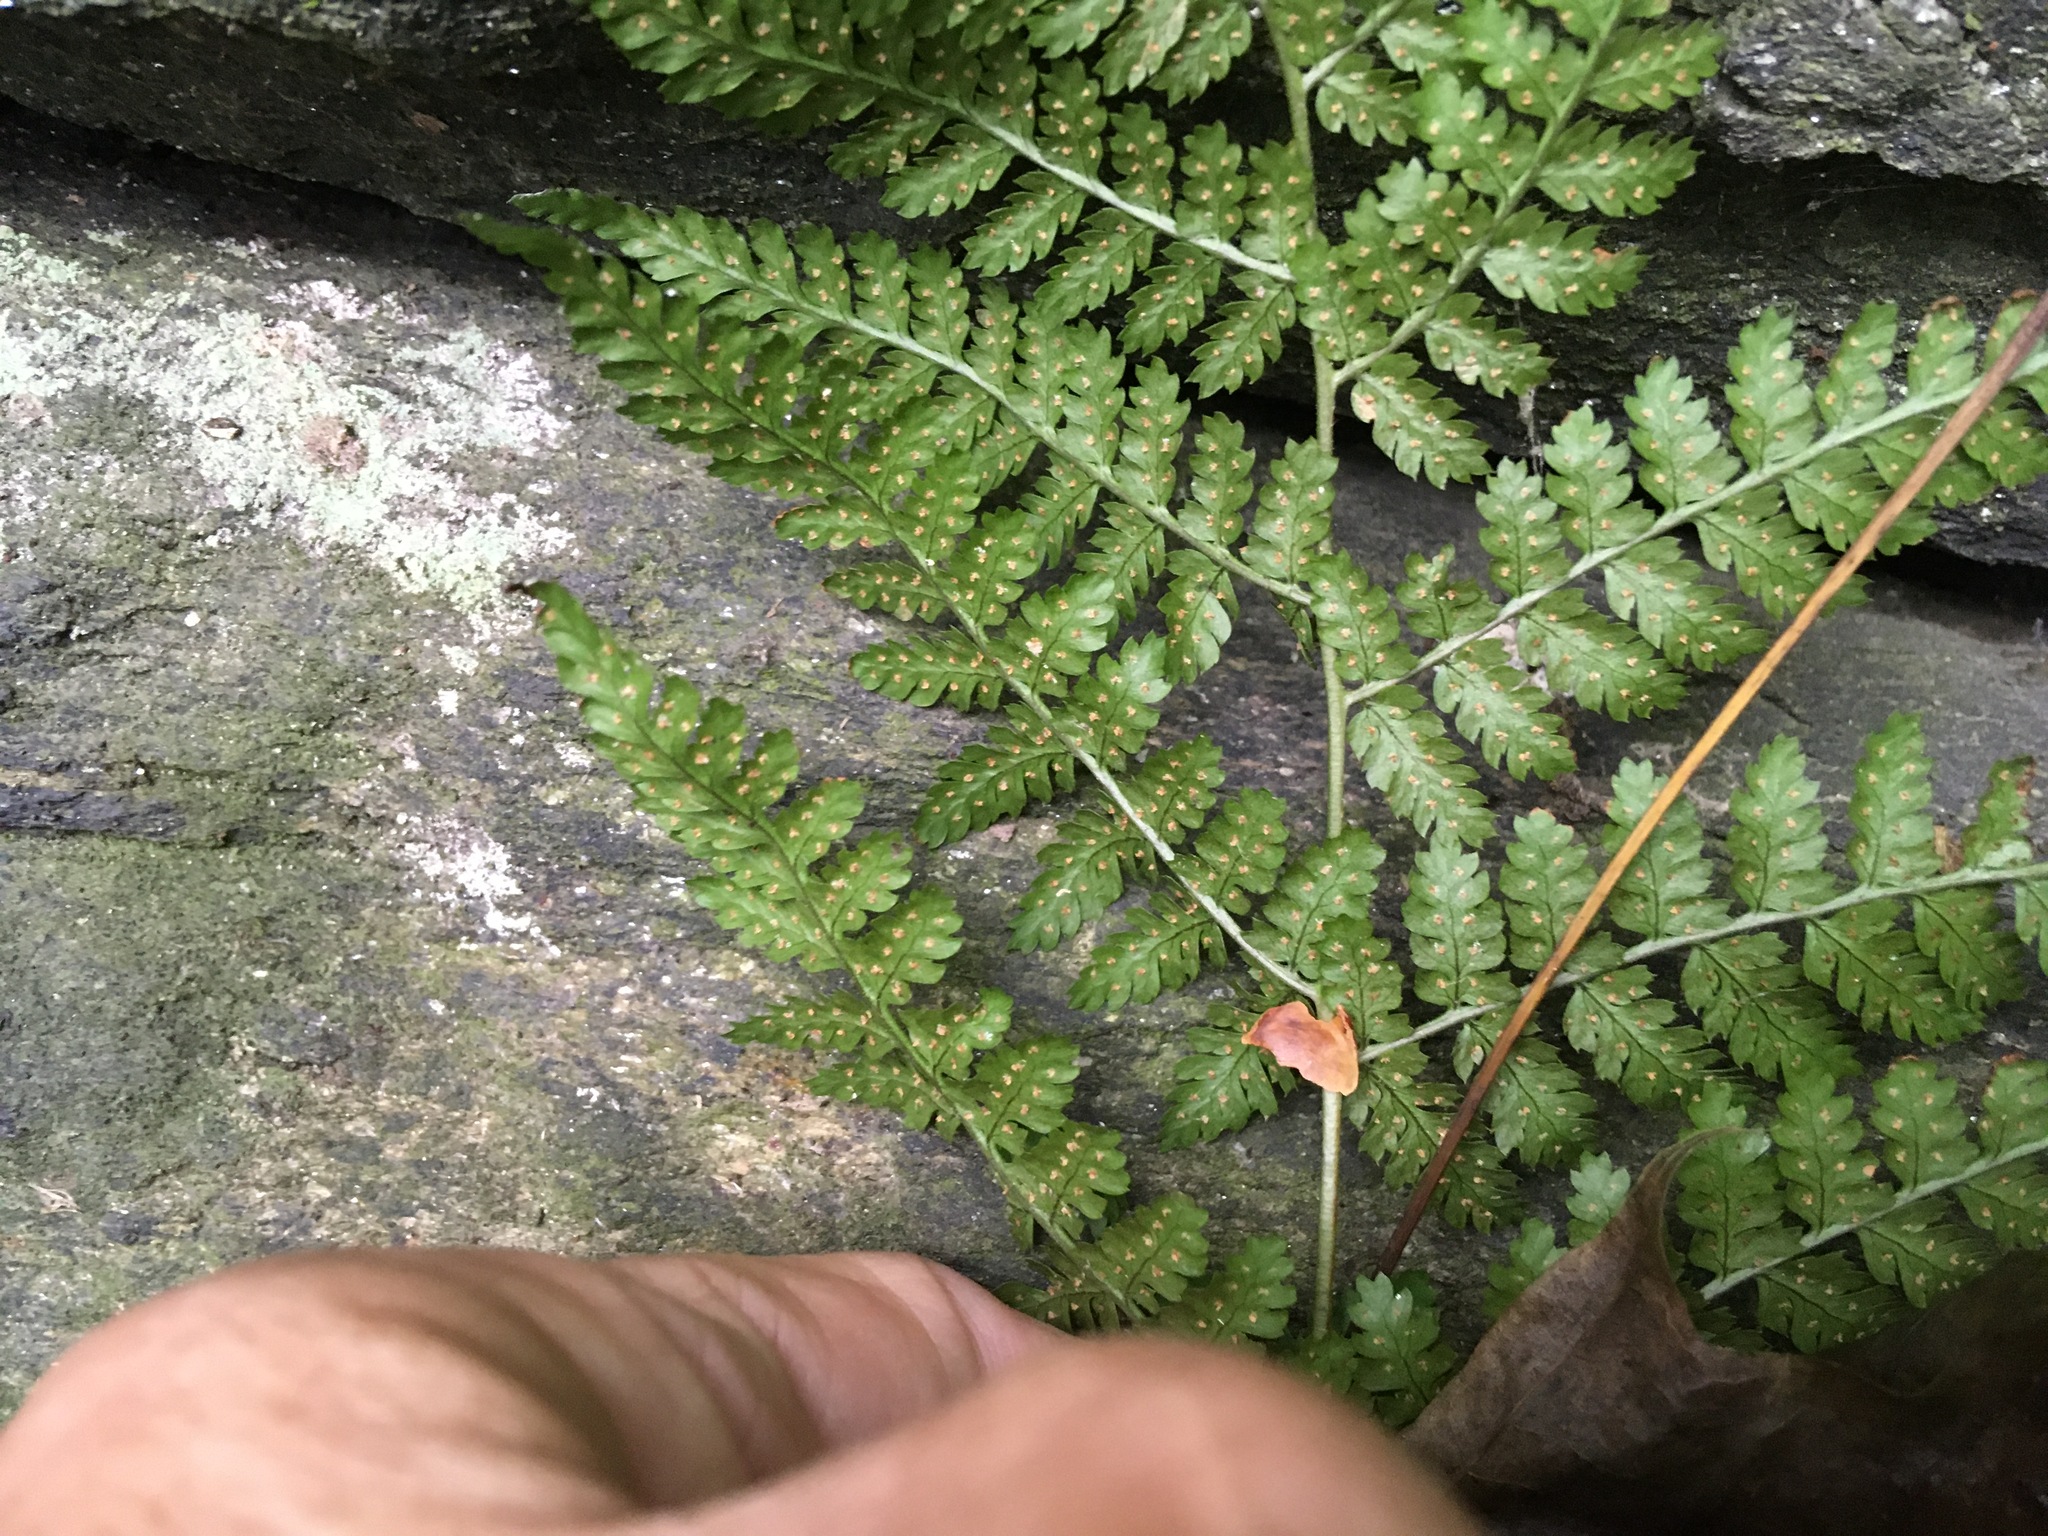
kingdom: Plantae
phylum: Tracheophyta
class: Polypodiopsida
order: Polypodiales
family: Dryopteridaceae
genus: Dryopteris
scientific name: Dryopteris intermedia
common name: Evergreen wood fern
